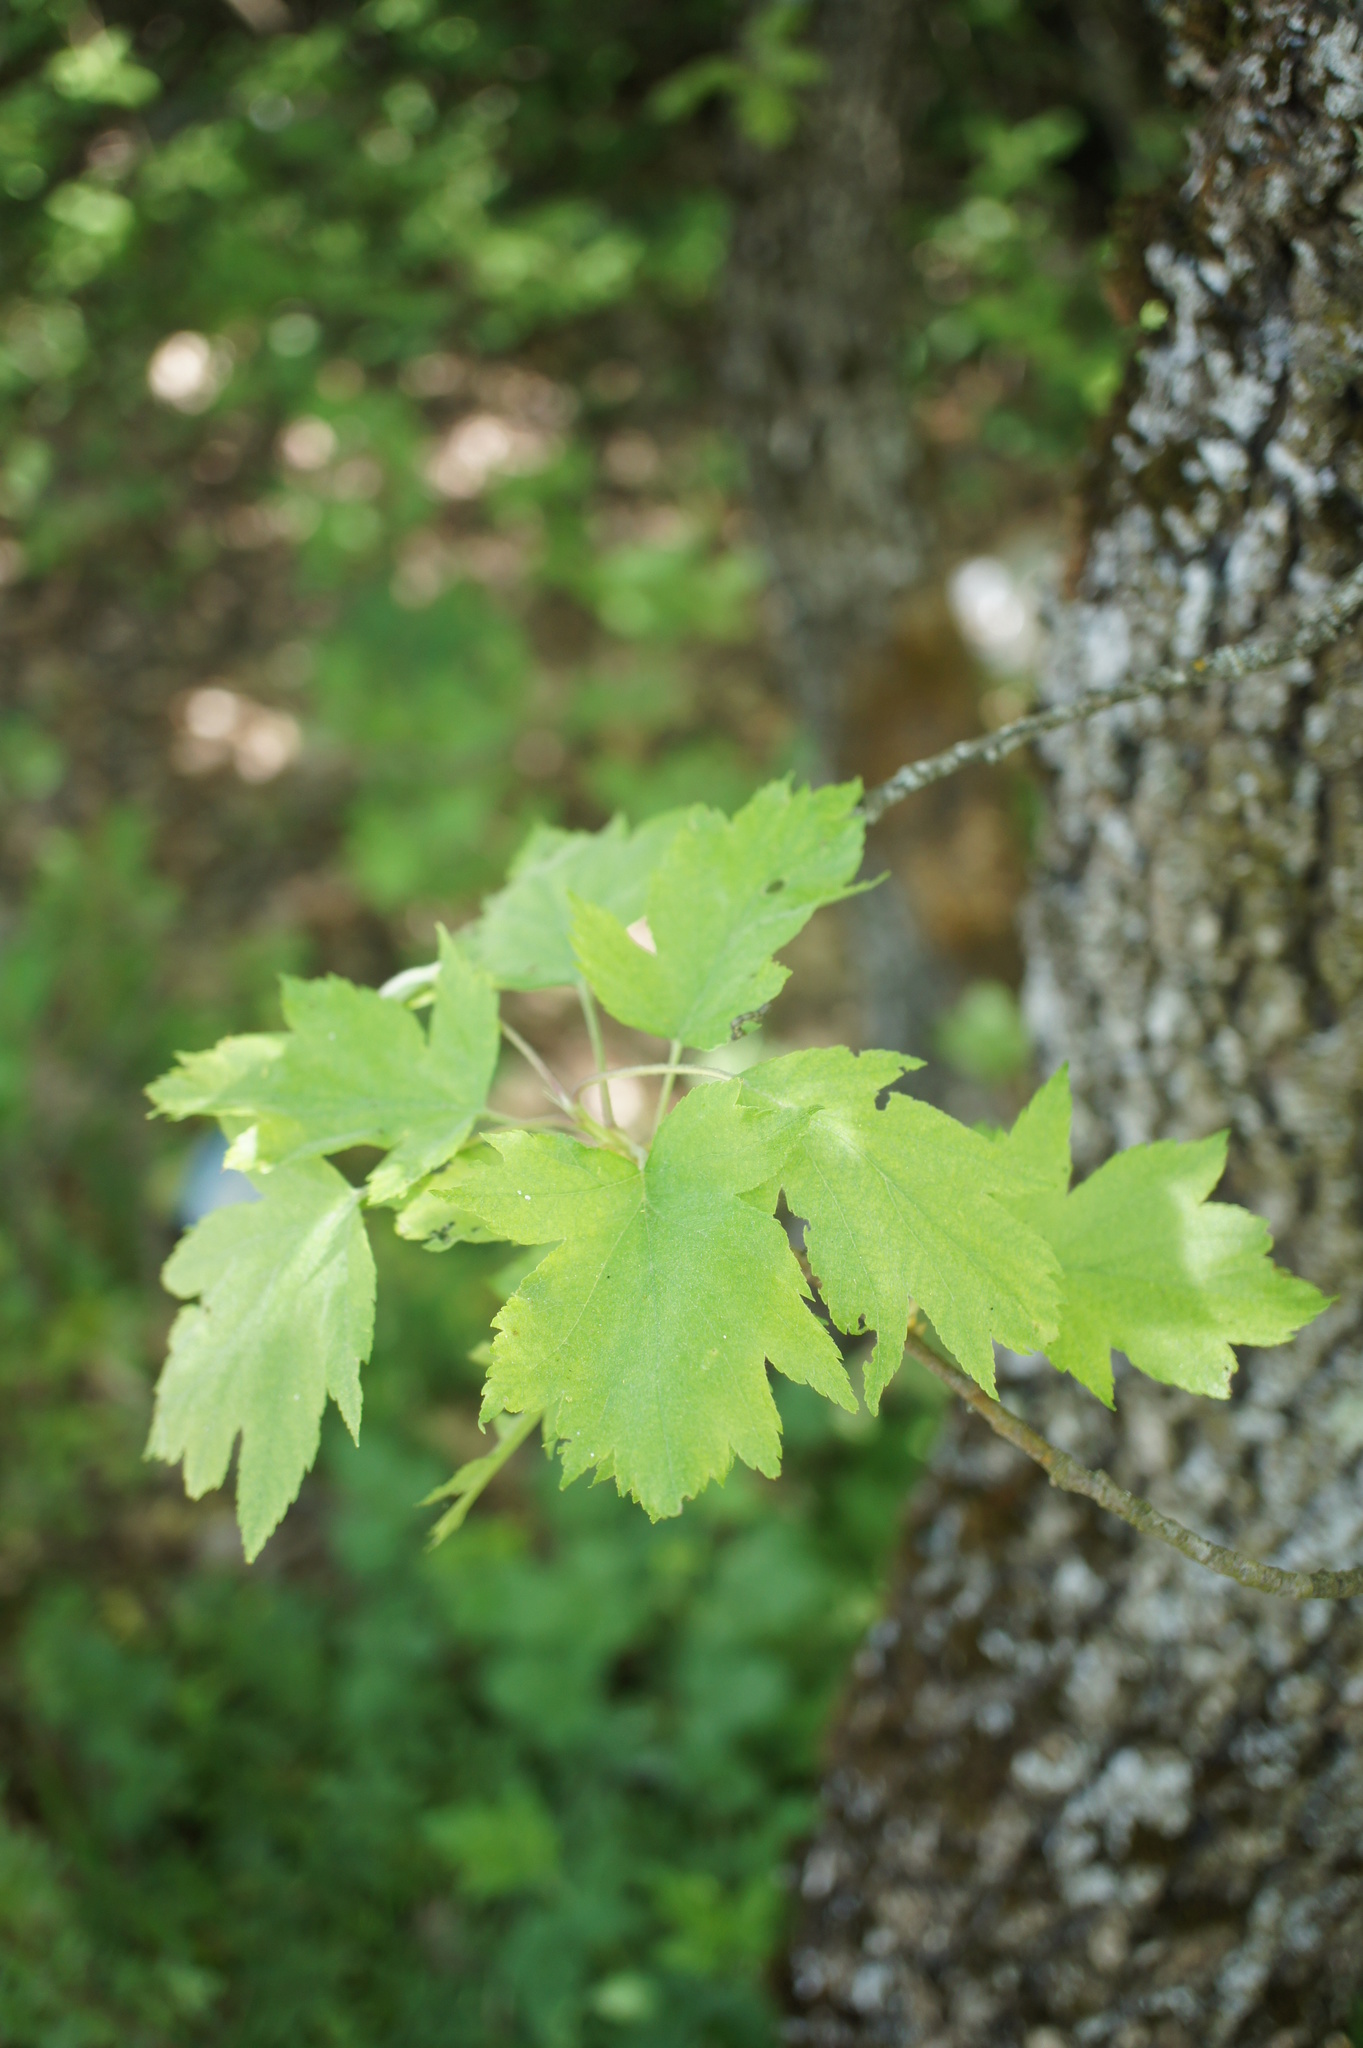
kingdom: Plantae
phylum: Tracheophyta
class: Magnoliopsida
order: Rosales
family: Rosaceae
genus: Torminalis
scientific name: Torminalis glaberrima
